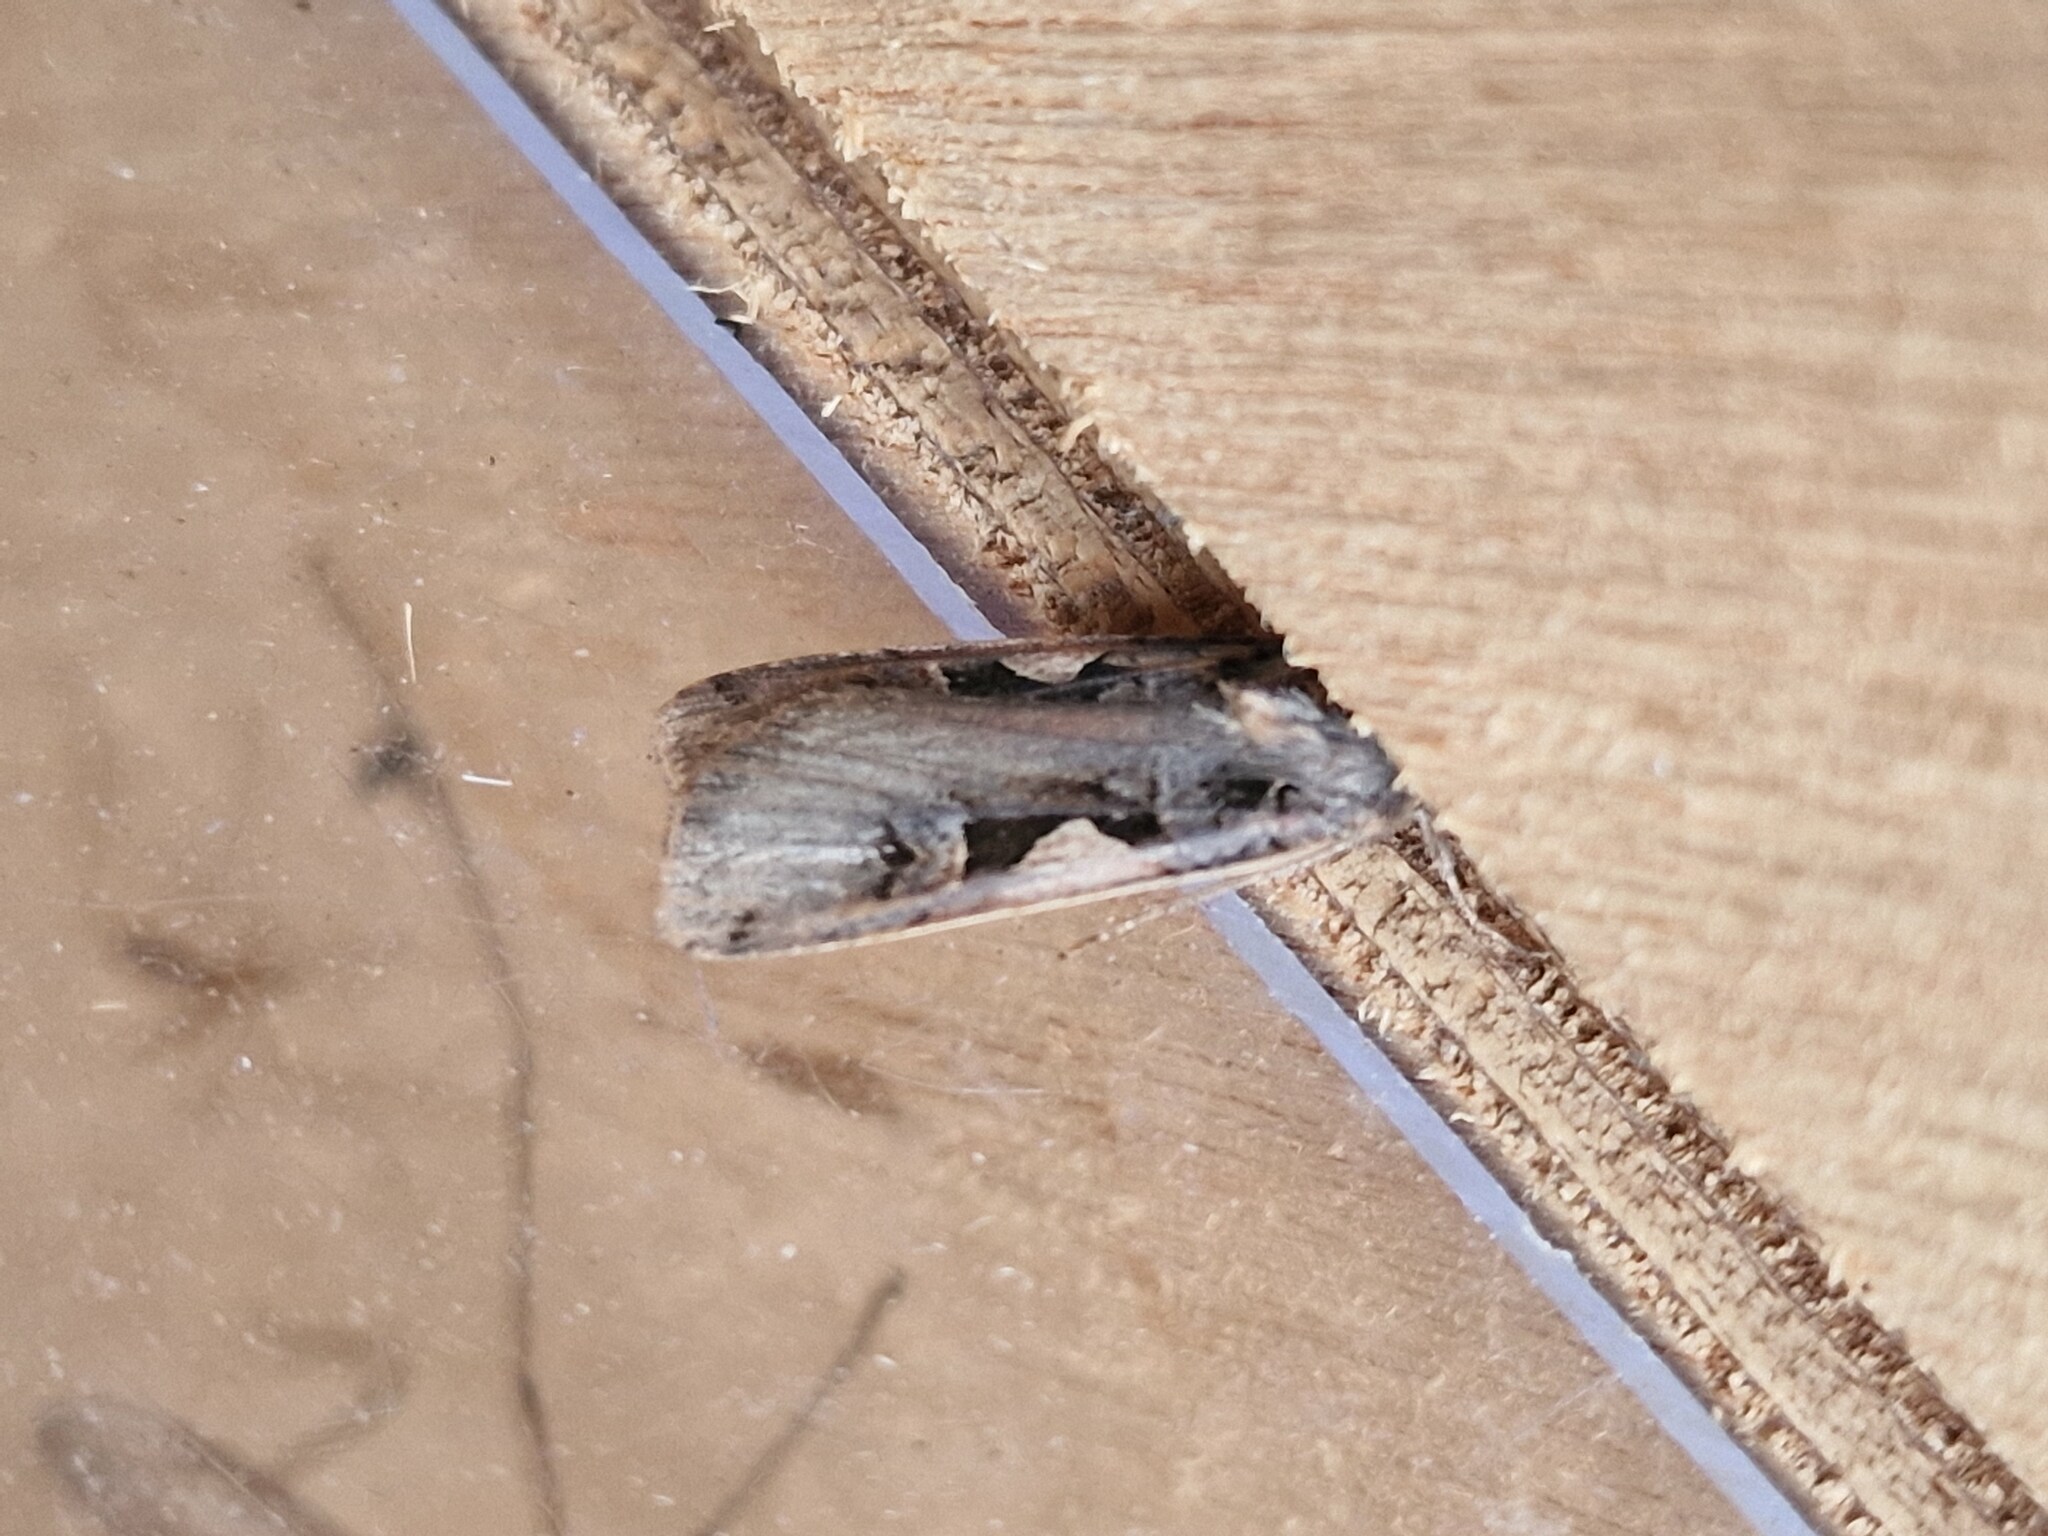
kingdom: Animalia
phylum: Arthropoda
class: Insecta
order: Lepidoptera
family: Noctuidae
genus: Xestia
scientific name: Xestia c-nigrum
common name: Setaceous hebrew character
